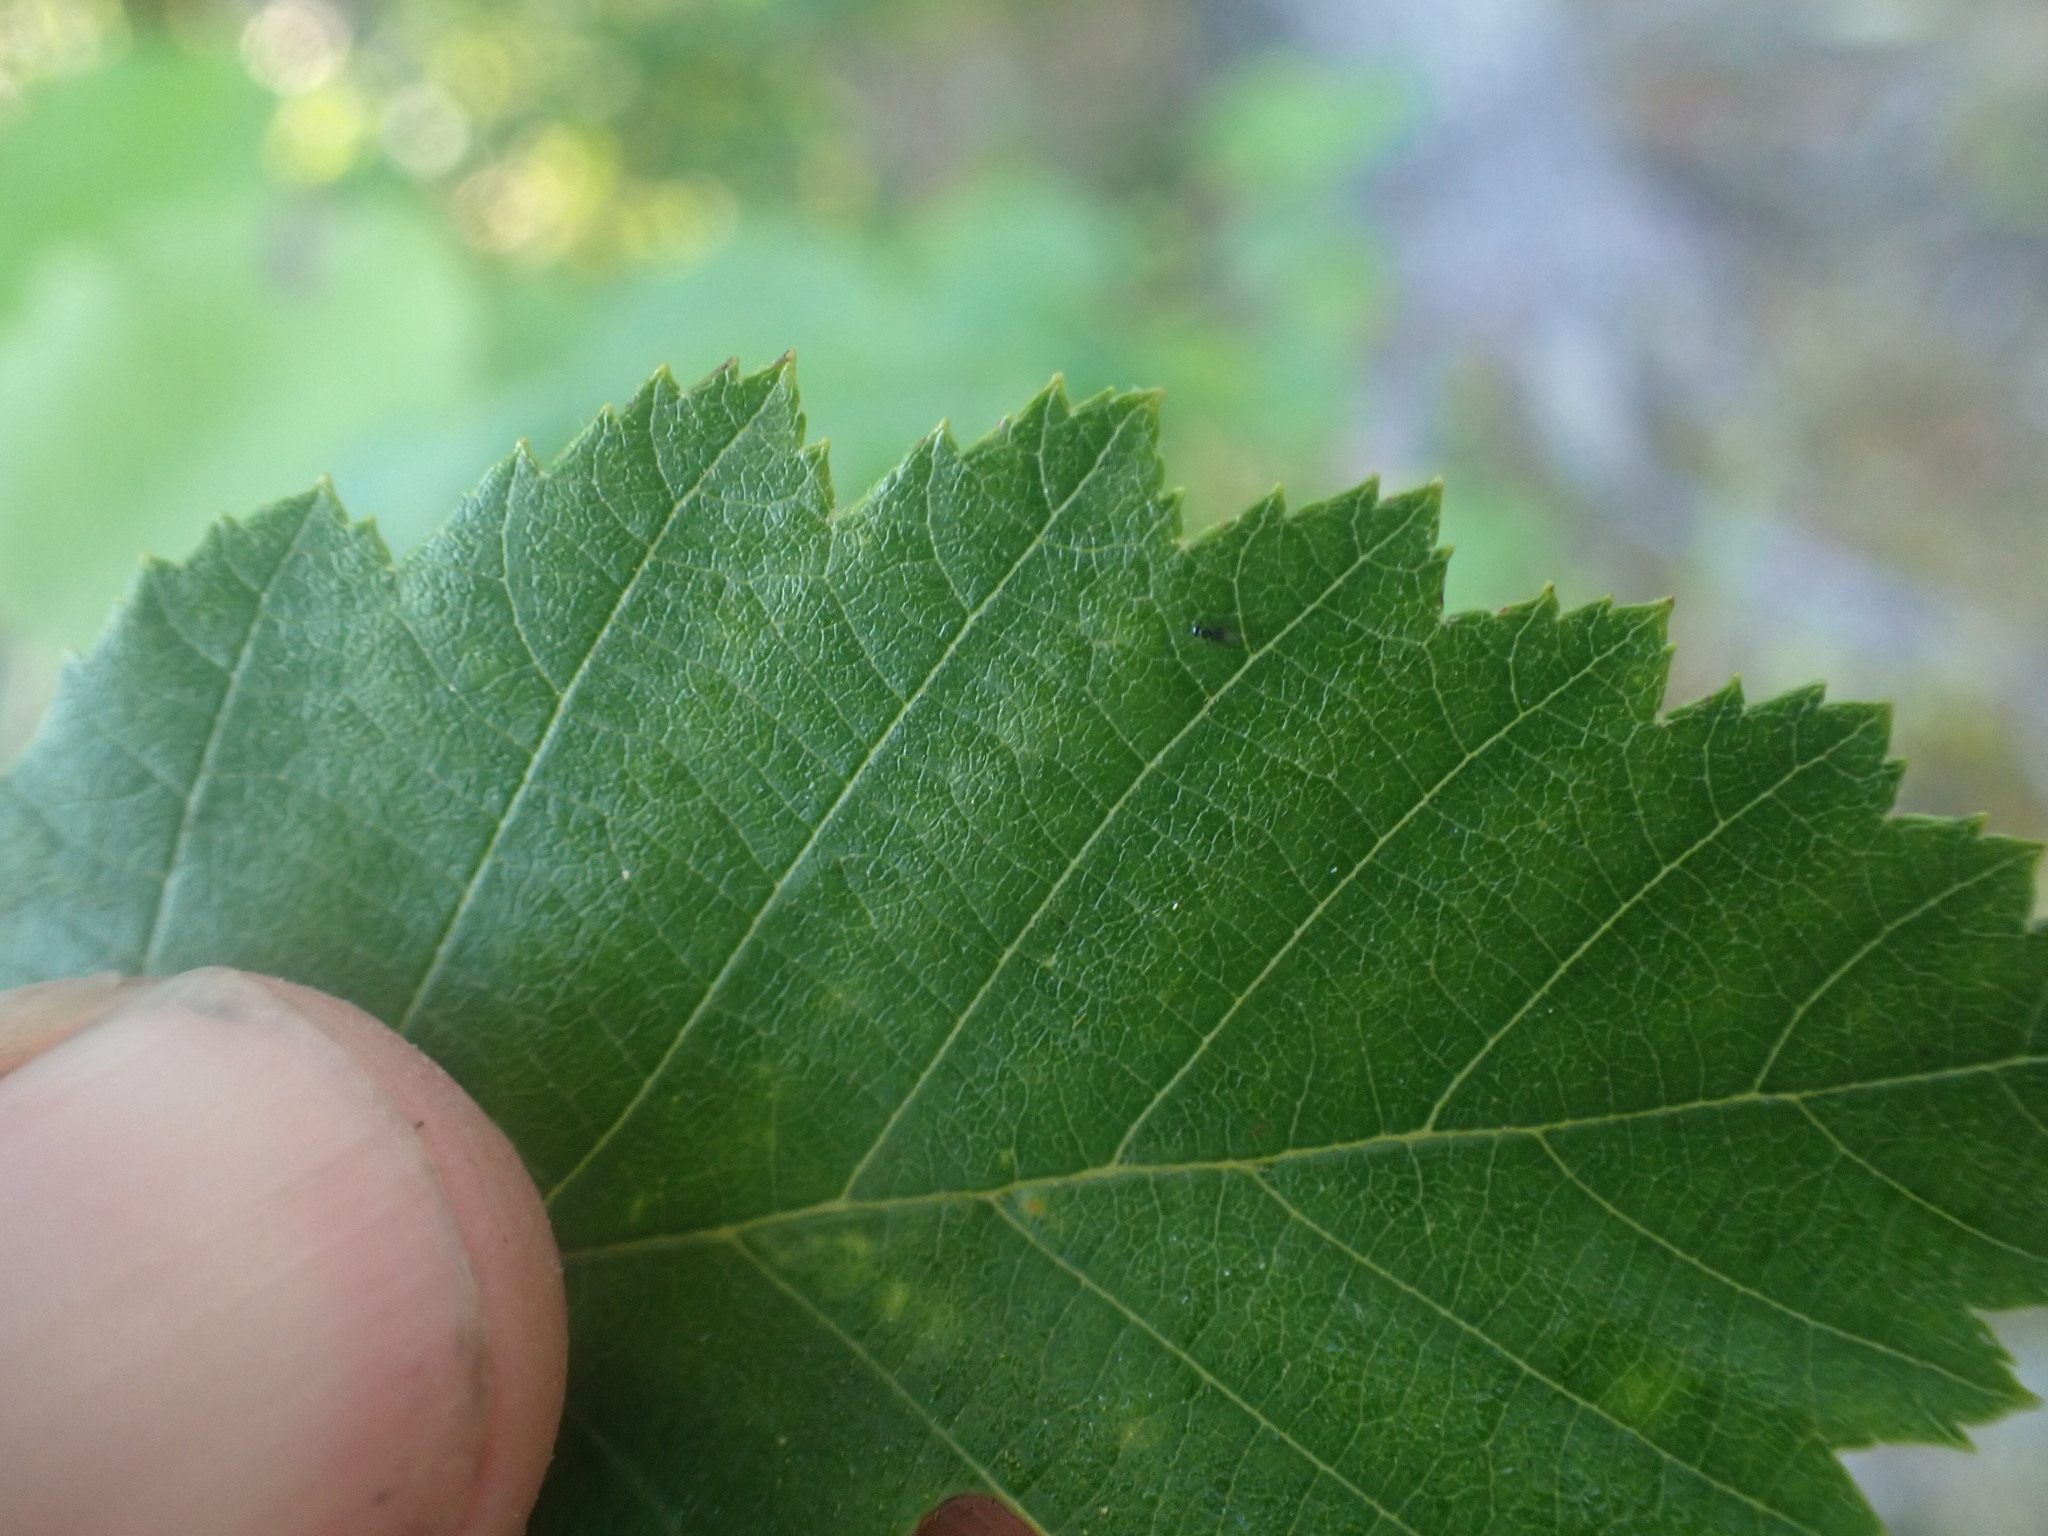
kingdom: Plantae
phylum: Tracheophyta
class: Magnoliopsida
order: Fagales
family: Betulaceae
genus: Alnus
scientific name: Alnus incana
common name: Grey alder
